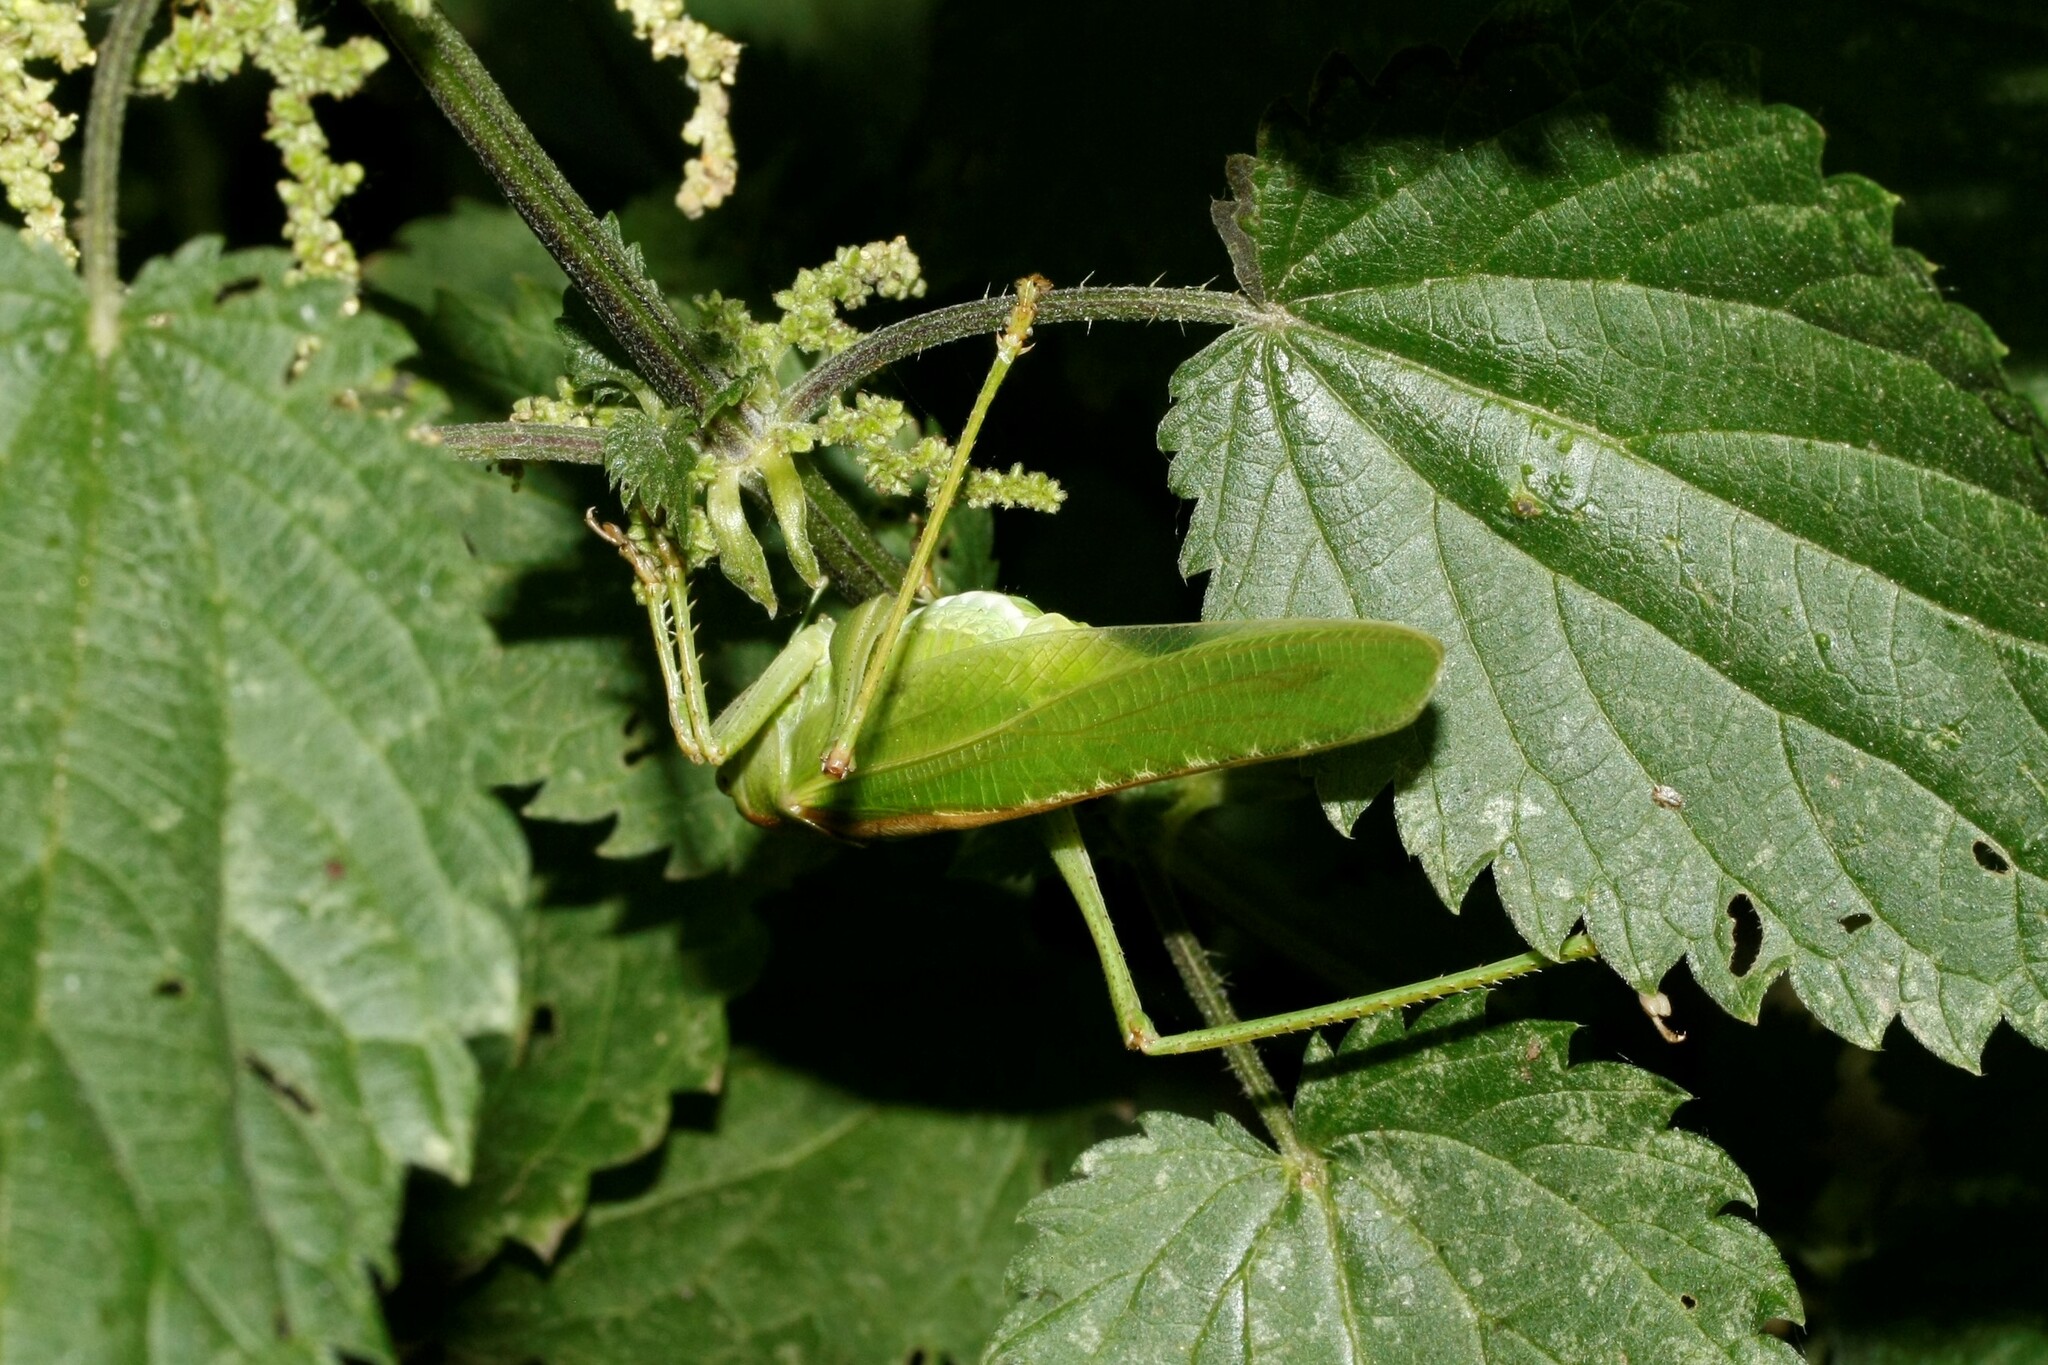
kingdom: Animalia
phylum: Arthropoda
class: Insecta
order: Orthoptera
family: Tettigoniidae
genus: Tettigonia
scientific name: Tettigonia viridissima
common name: Great green bush-cricket
